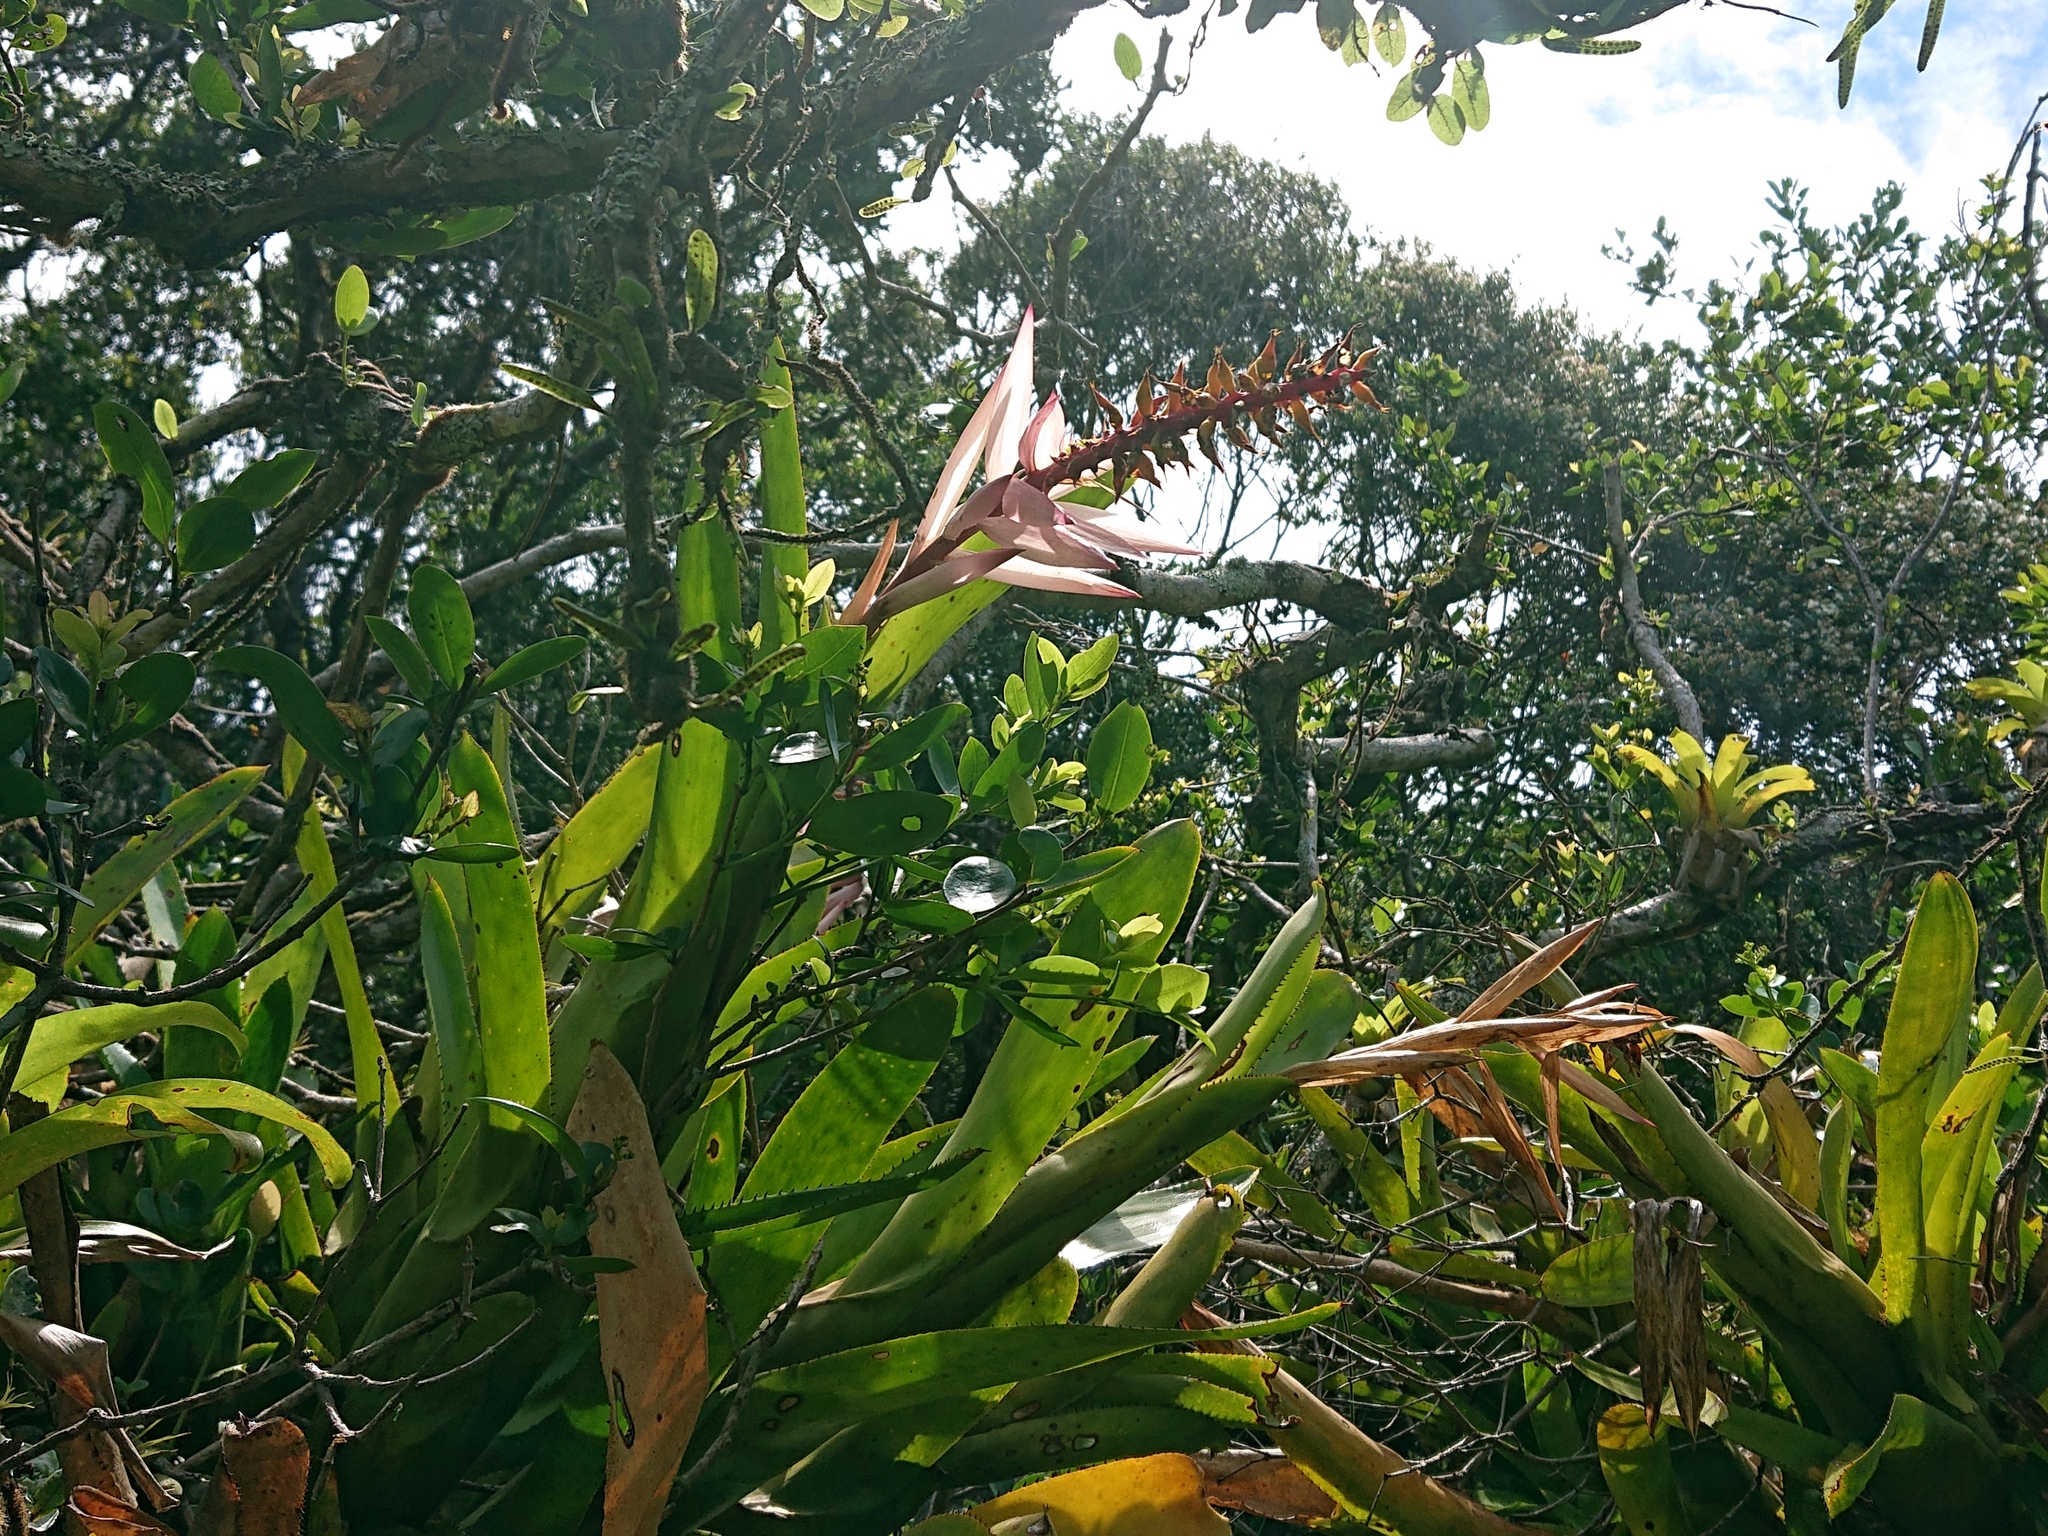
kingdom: Plantae
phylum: Tracheophyta
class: Liliopsida
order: Poales
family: Bromeliaceae
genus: Aechmea
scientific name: Aechmea nudicaulis
